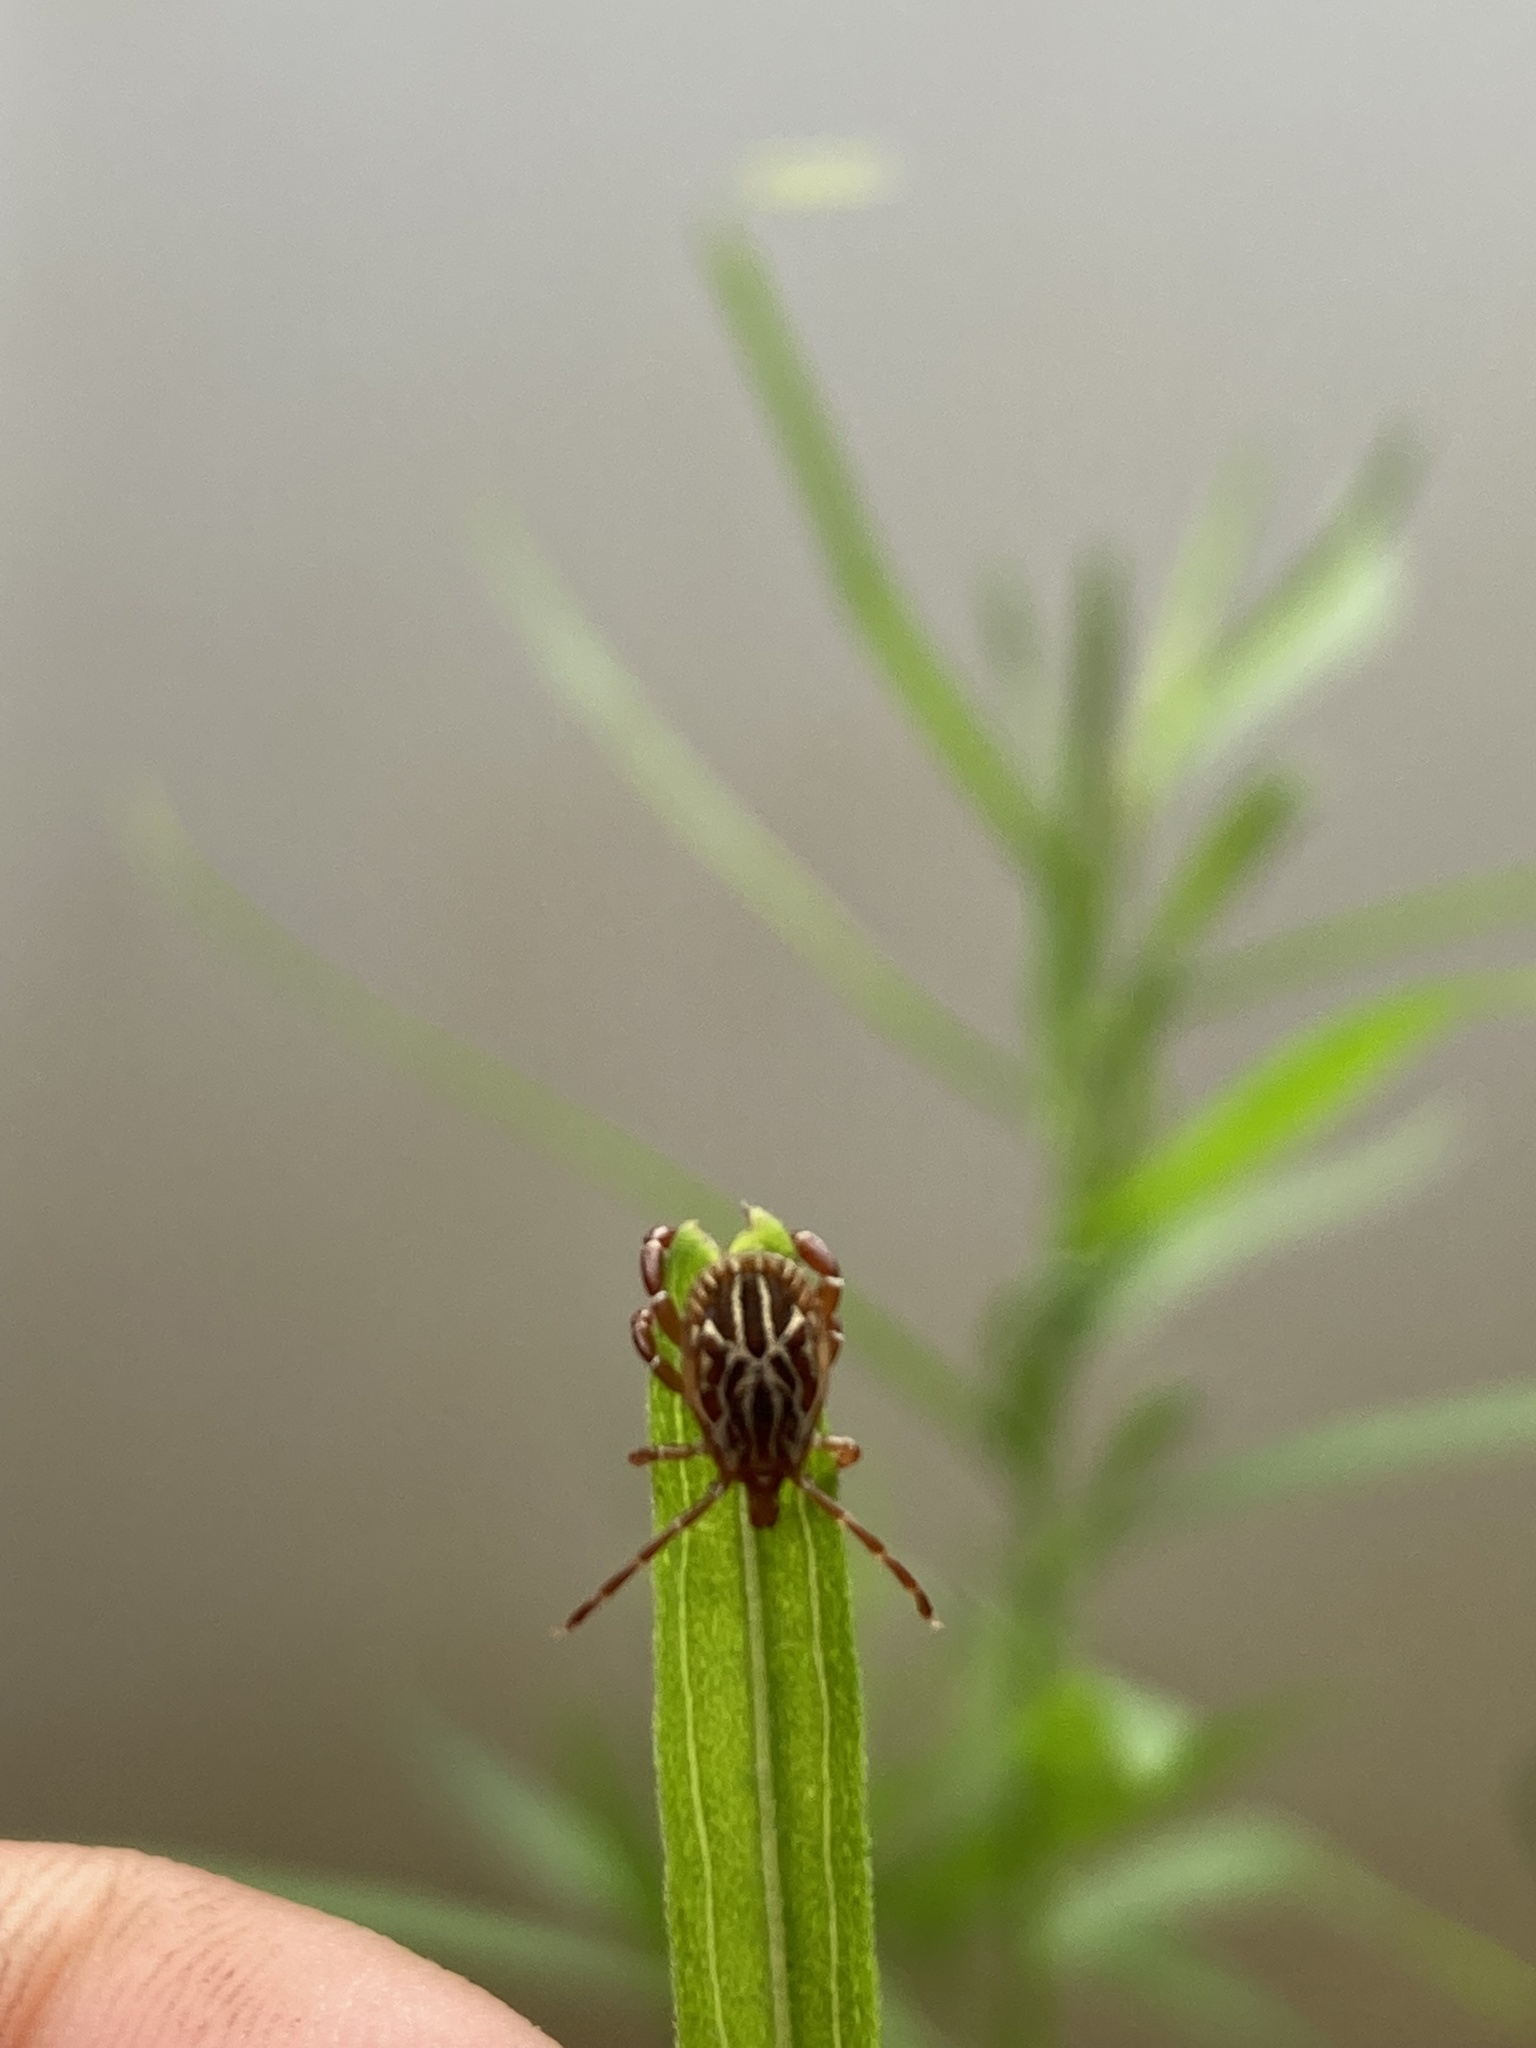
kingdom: Animalia
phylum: Arthropoda
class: Arachnida
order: Ixodida
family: Ixodidae
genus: Amblyomma
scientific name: Amblyomma maculatum
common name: Gulf coast tick
